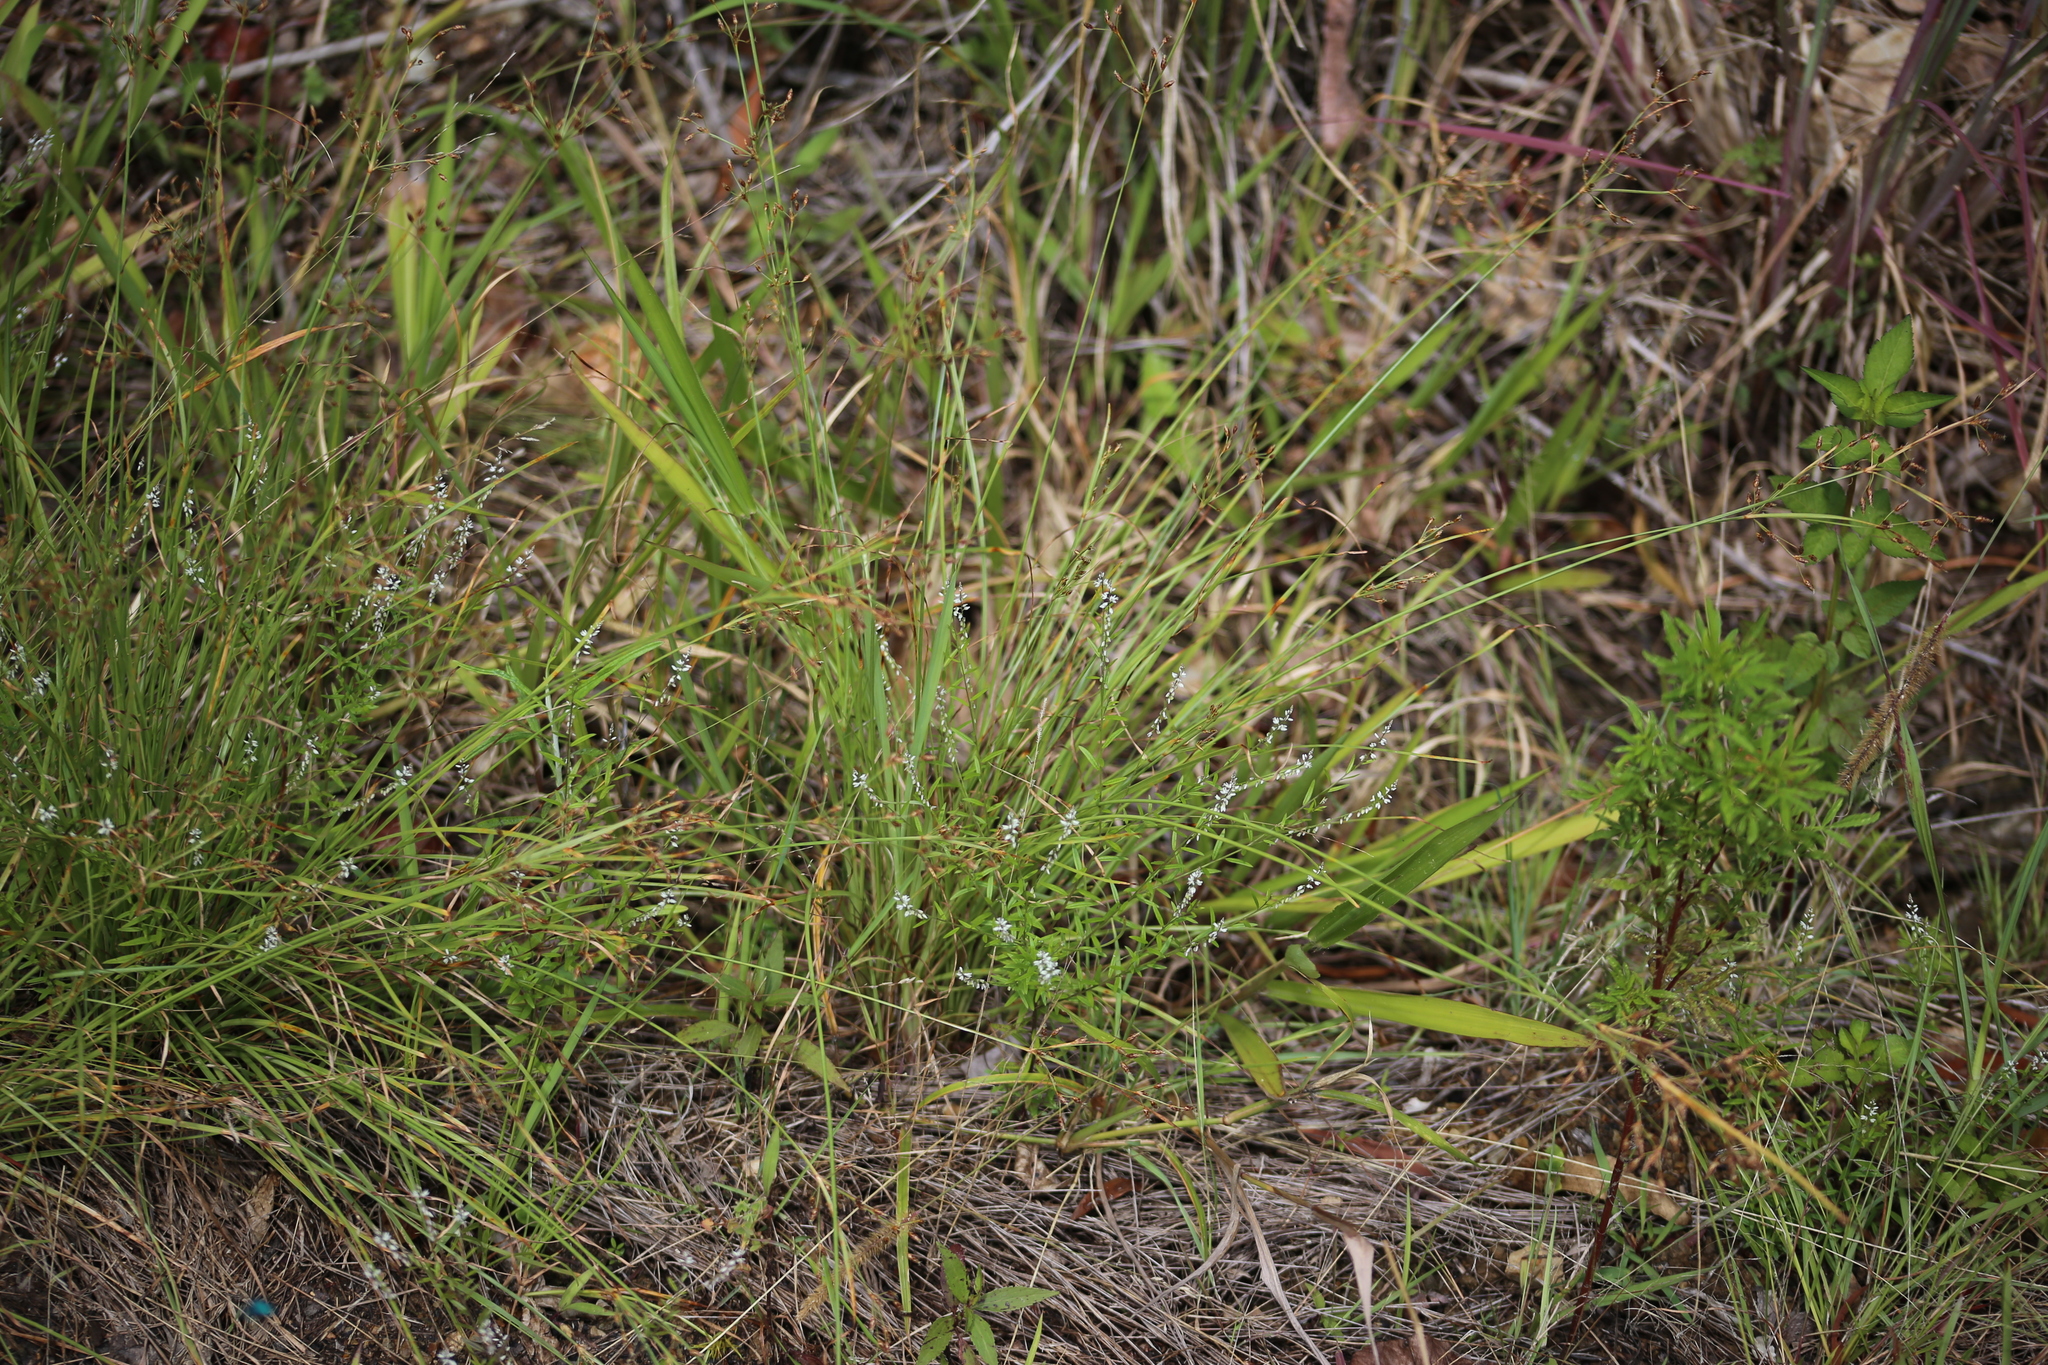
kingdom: Plantae
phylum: Tracheophyta
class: Magnoliopsida
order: Fabales
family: Polygalaceae
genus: Polygala
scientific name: Polygala paniculata
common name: Orosne
